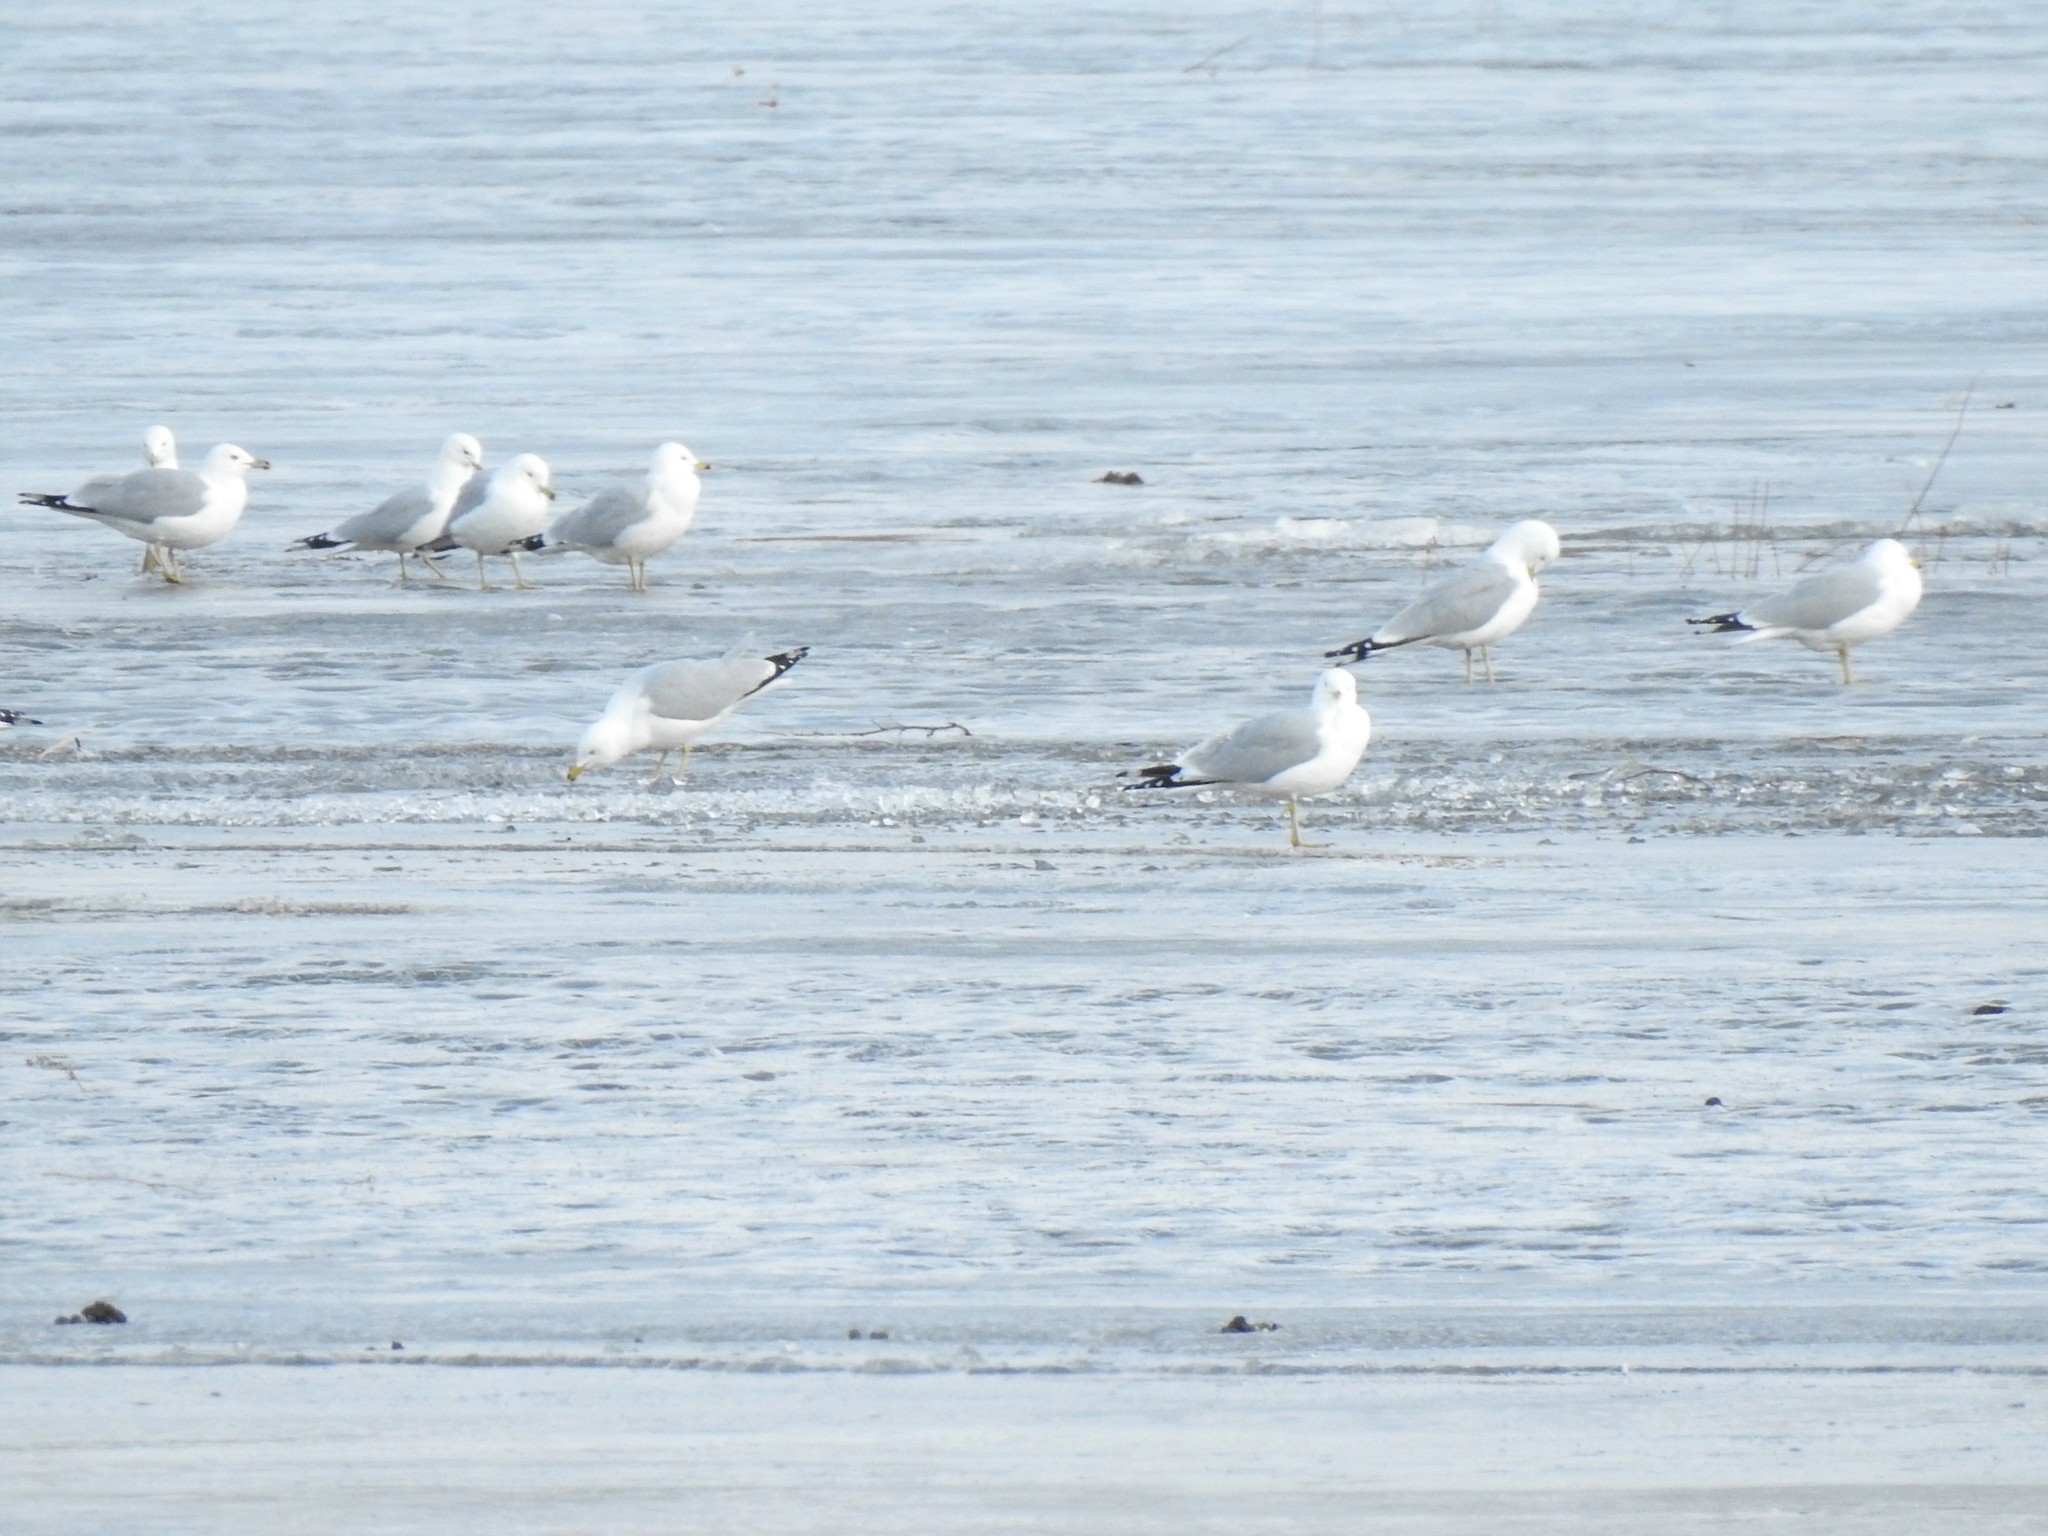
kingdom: Animalia
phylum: Chordata
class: Aves
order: Charadriiformes
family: Laridae
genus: Larus
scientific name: Larus delawarensis
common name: Ring-billed gull
